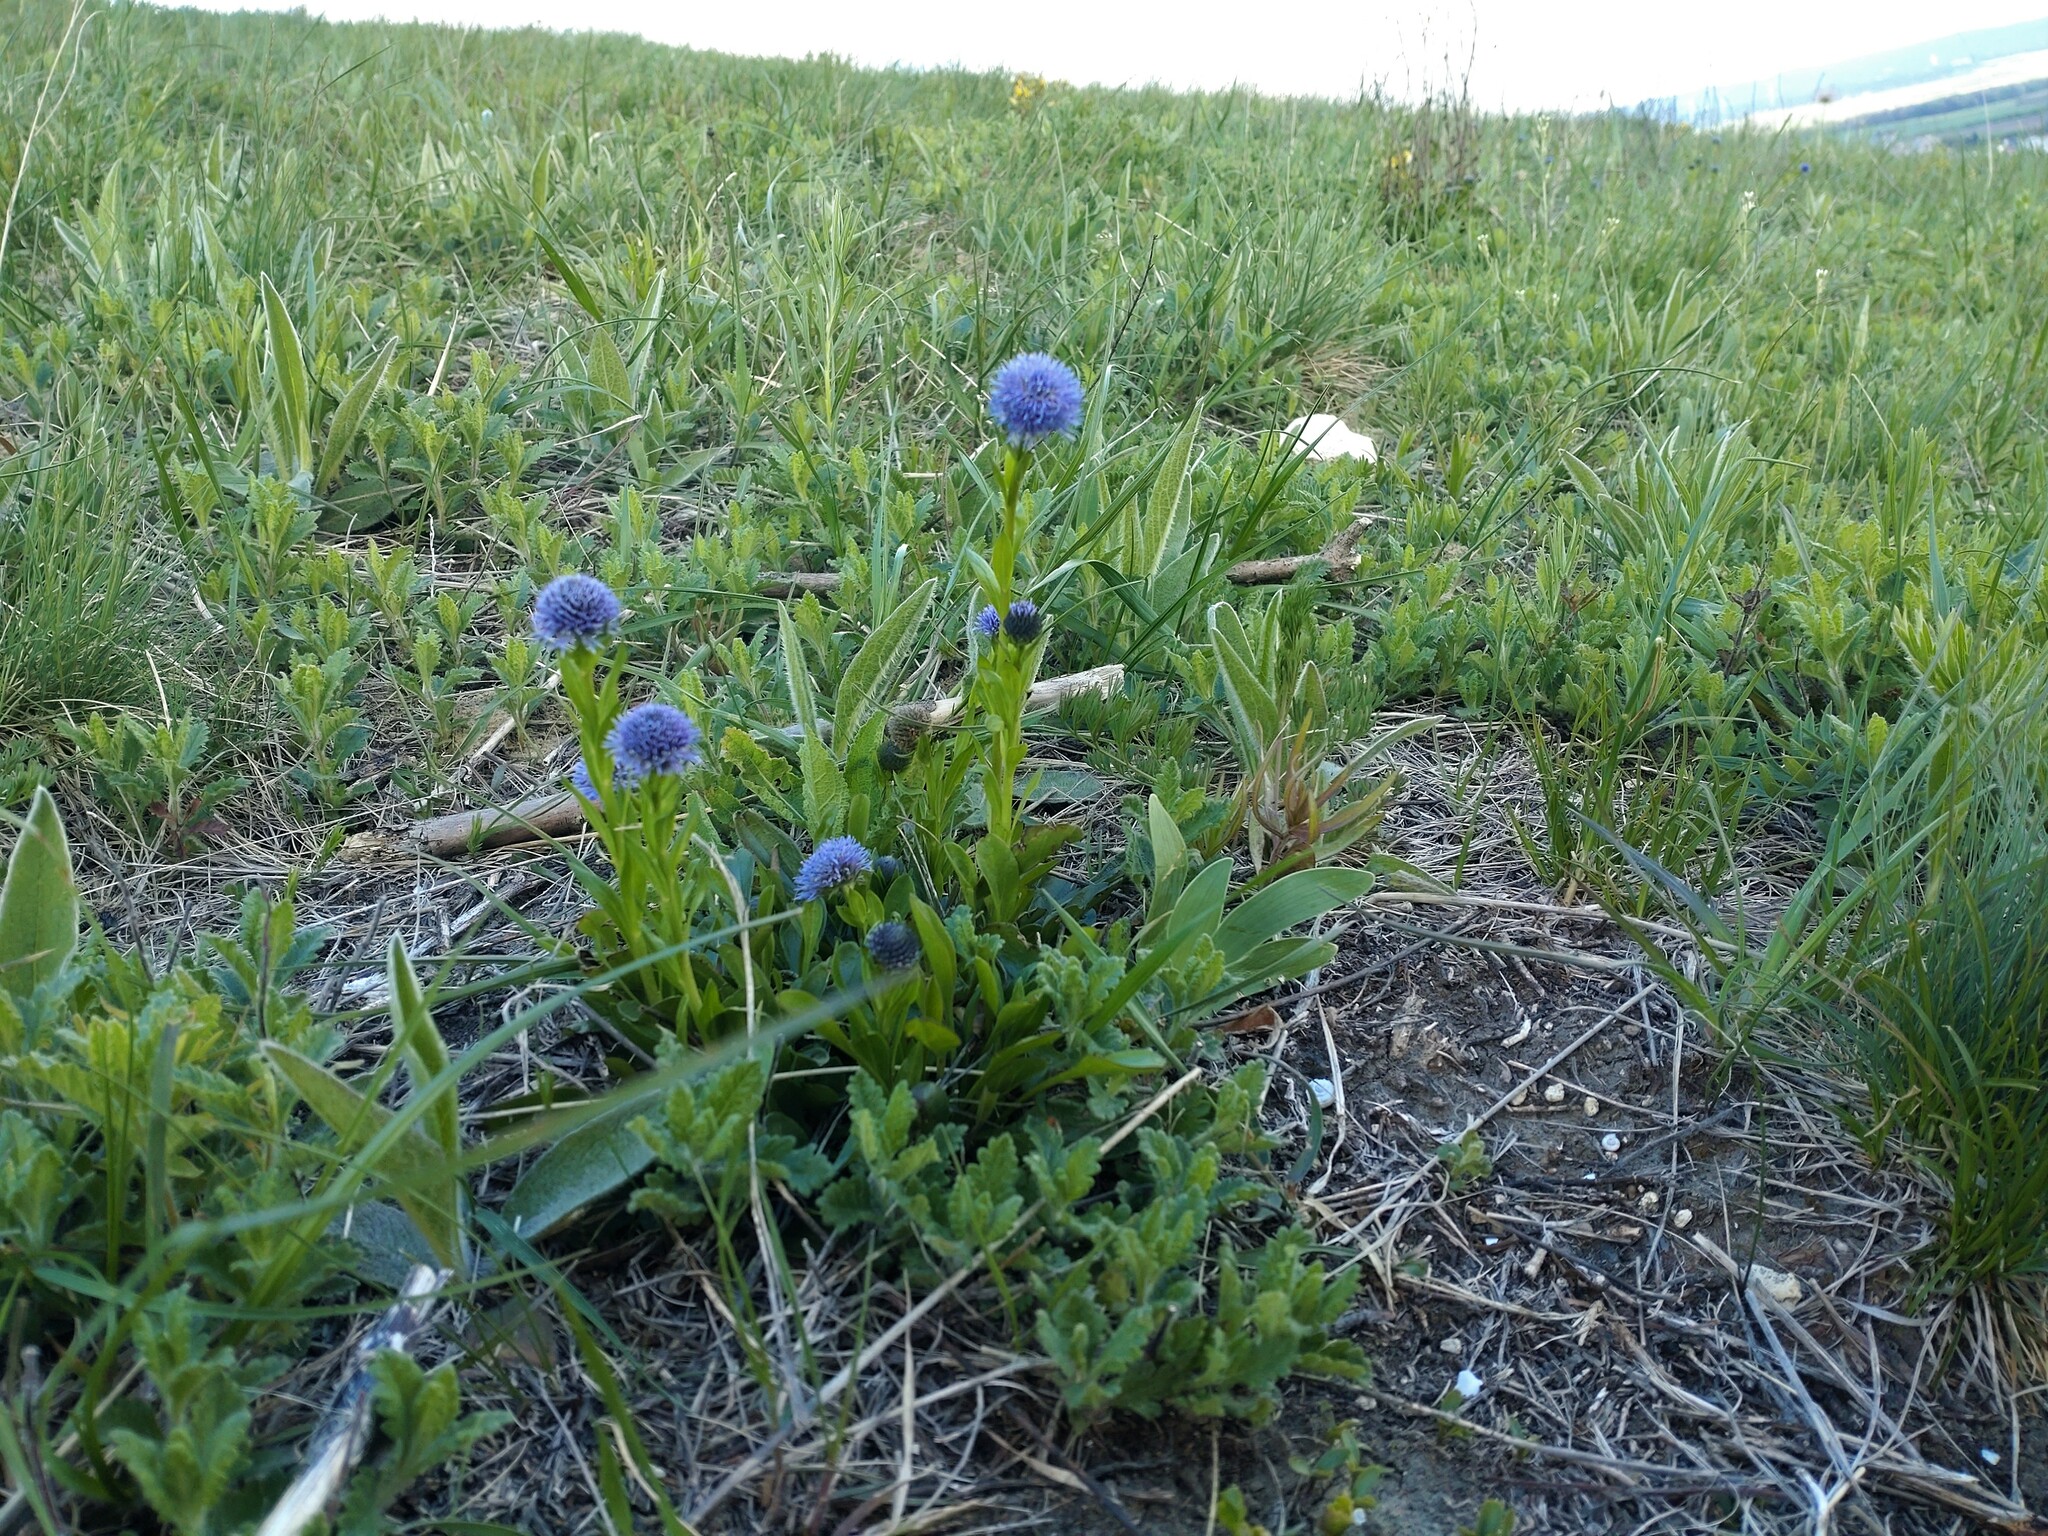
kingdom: Plantae
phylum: Tracheophyta
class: Magnoliopsida
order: Lamiales
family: Plantaginaceae
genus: Globularia
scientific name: Globularia bisnagarica
